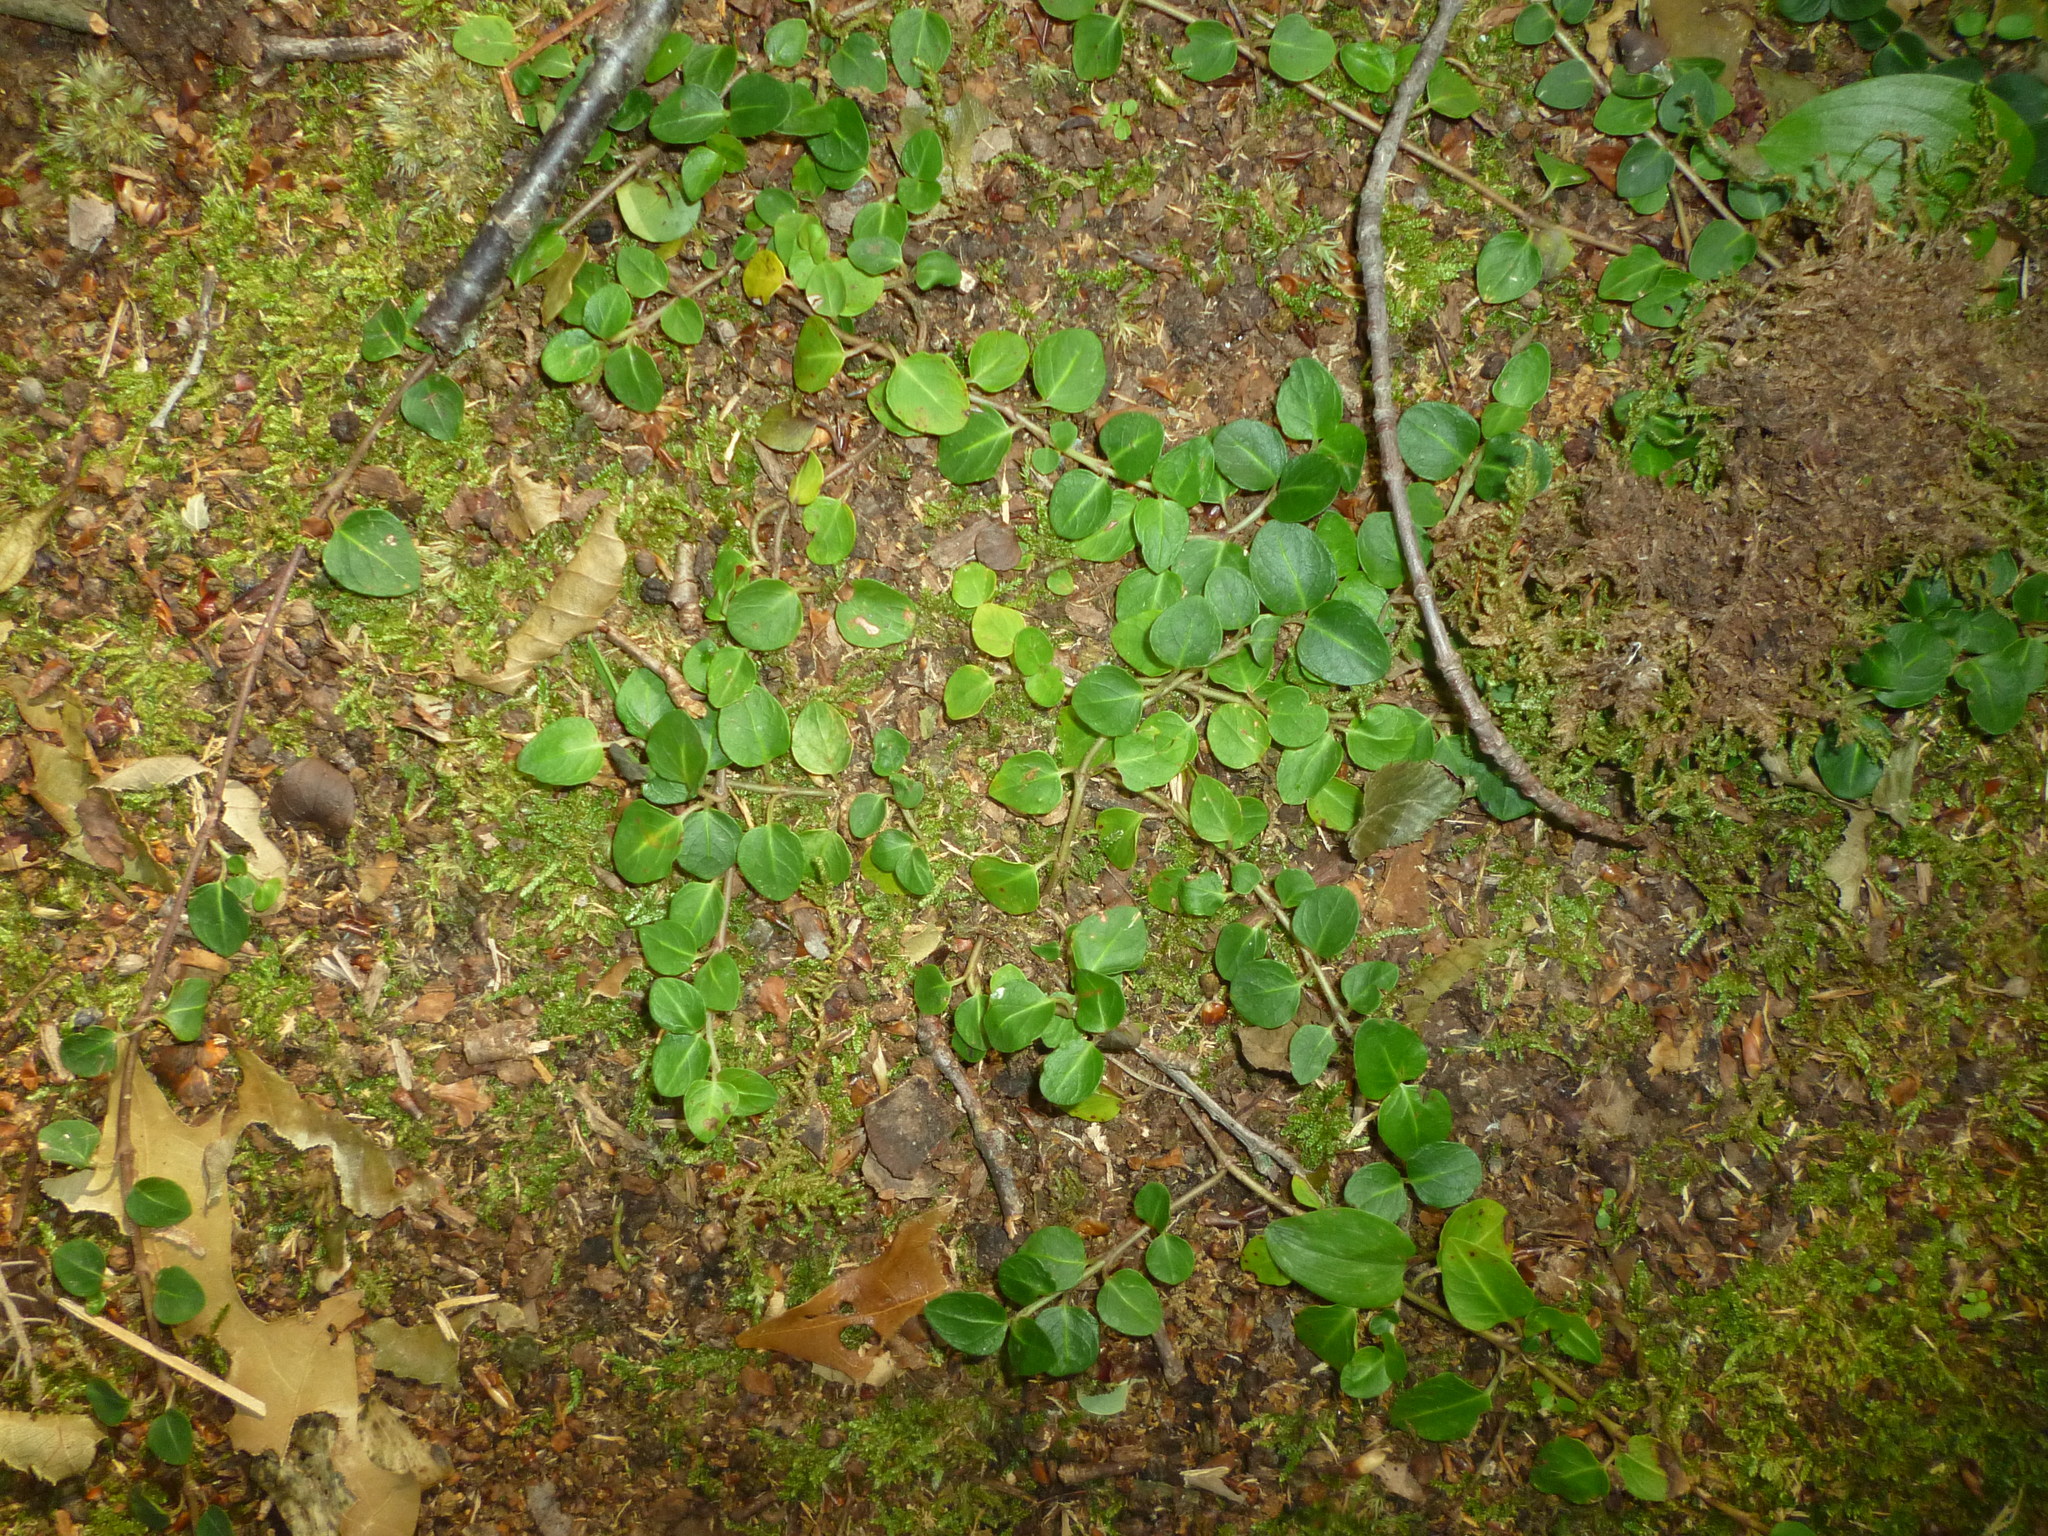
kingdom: Plantae
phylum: Tracheophyta
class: Magnoliopsida
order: Gentianales
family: Rubiaceae
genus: Mitchella
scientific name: Mitchella repens
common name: Partridge-berry
